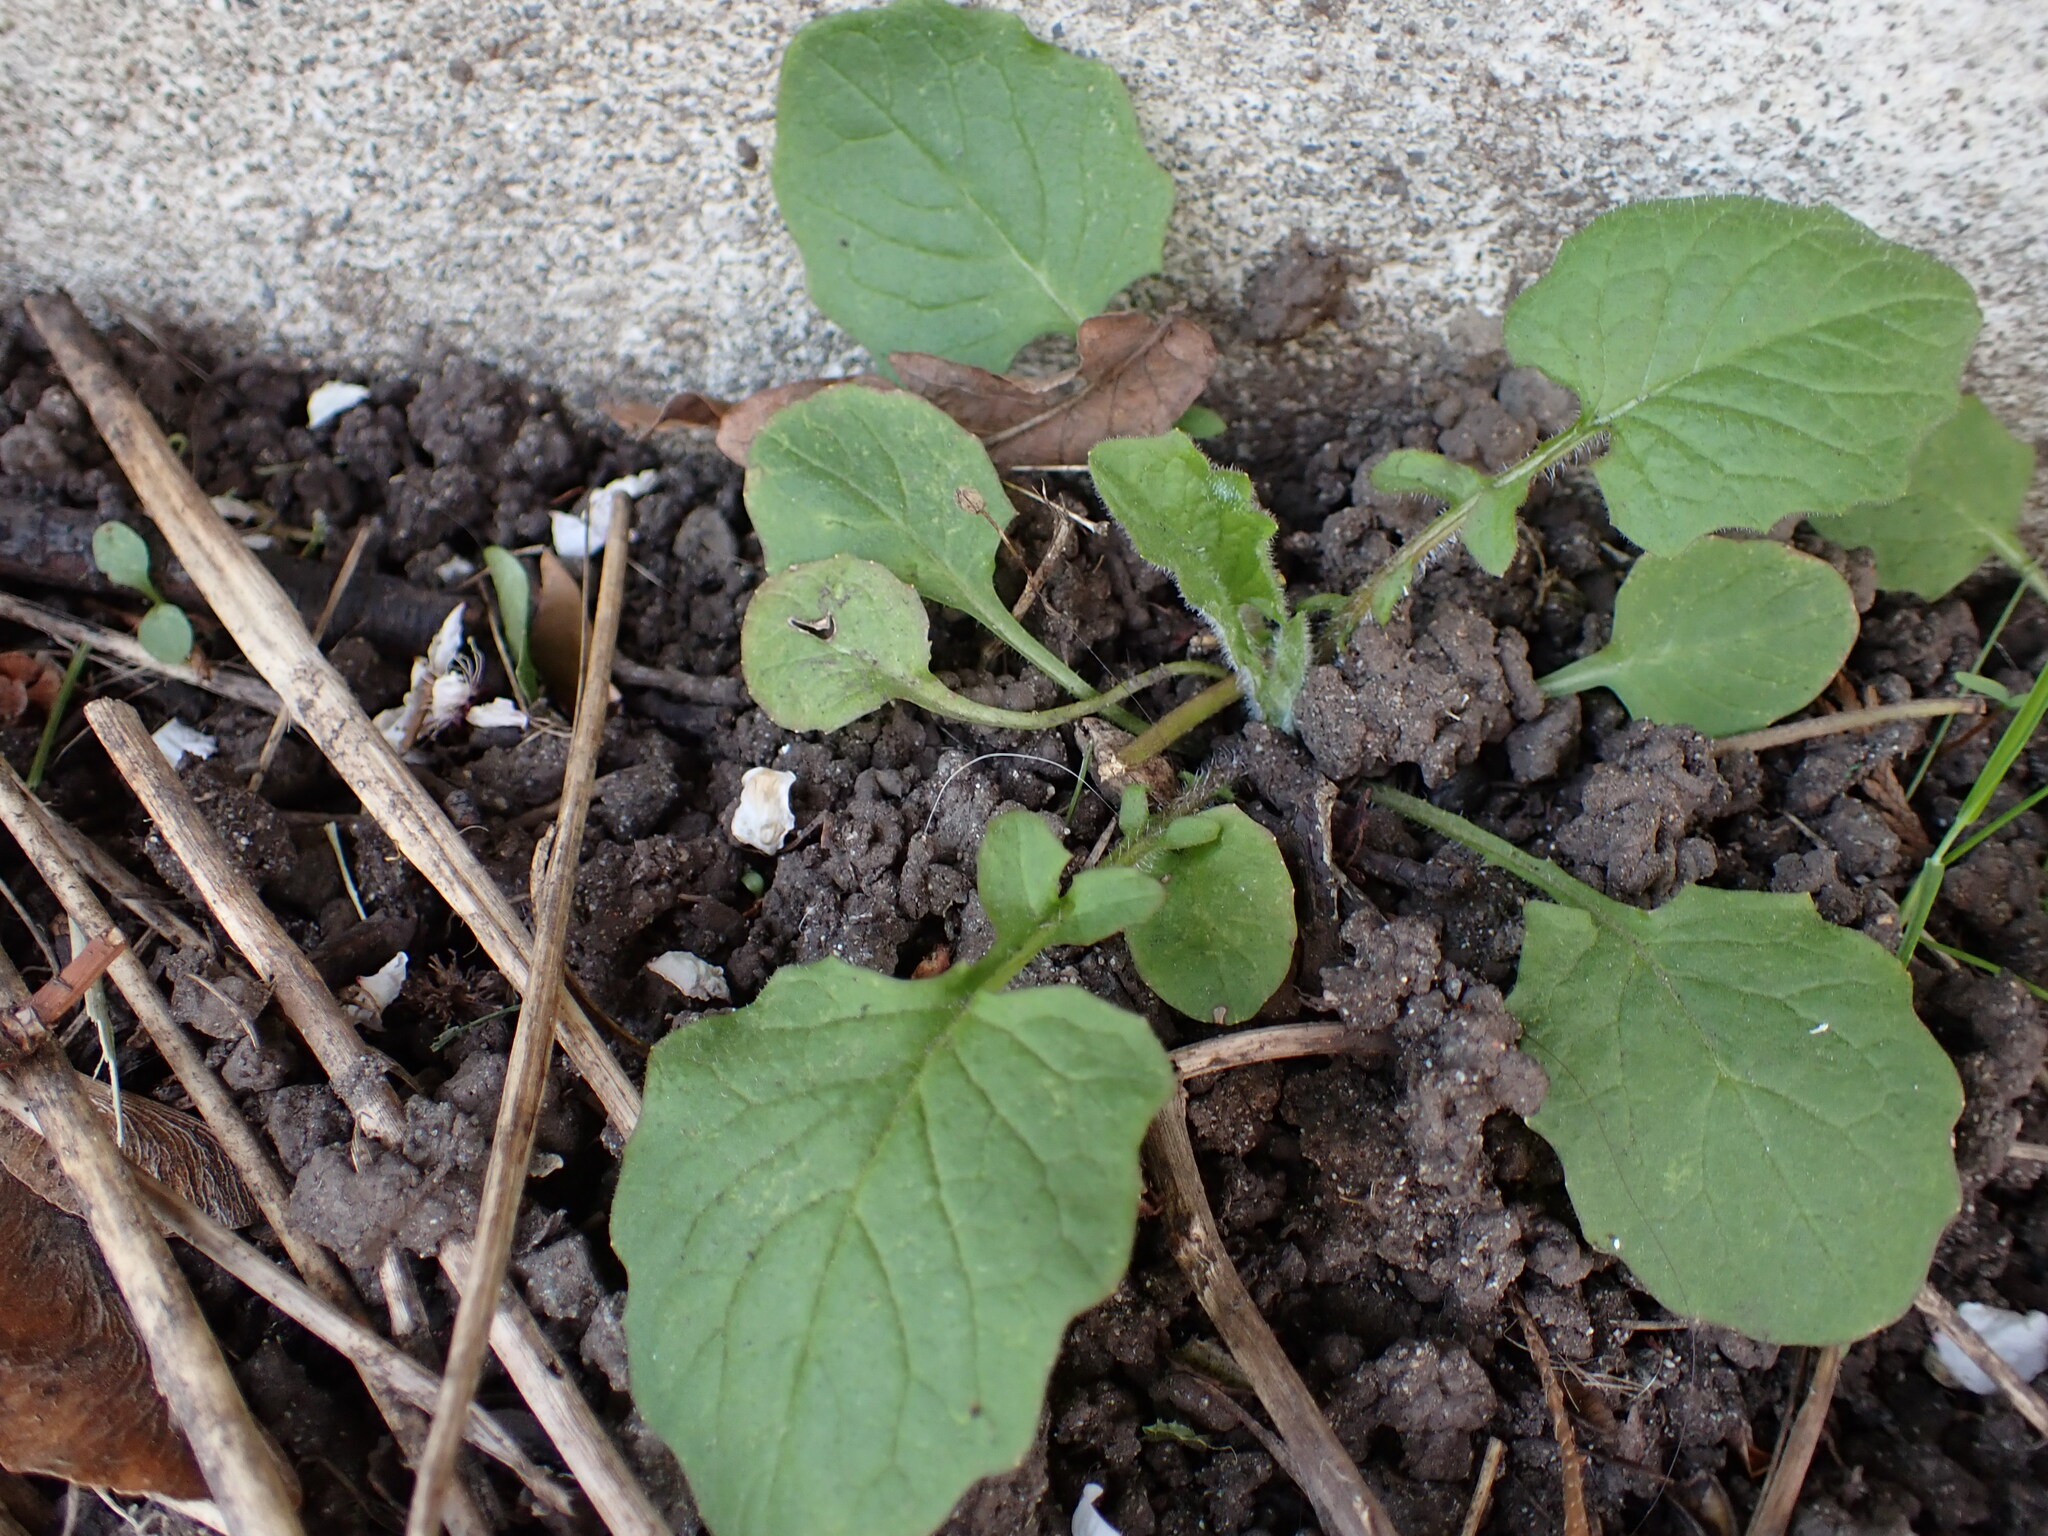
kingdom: Plantae
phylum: Tracheophyta
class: Magnoliopsida
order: Asterales
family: Asteraceae
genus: Lapsana
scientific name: Lapsana communis
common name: Nipplewort
